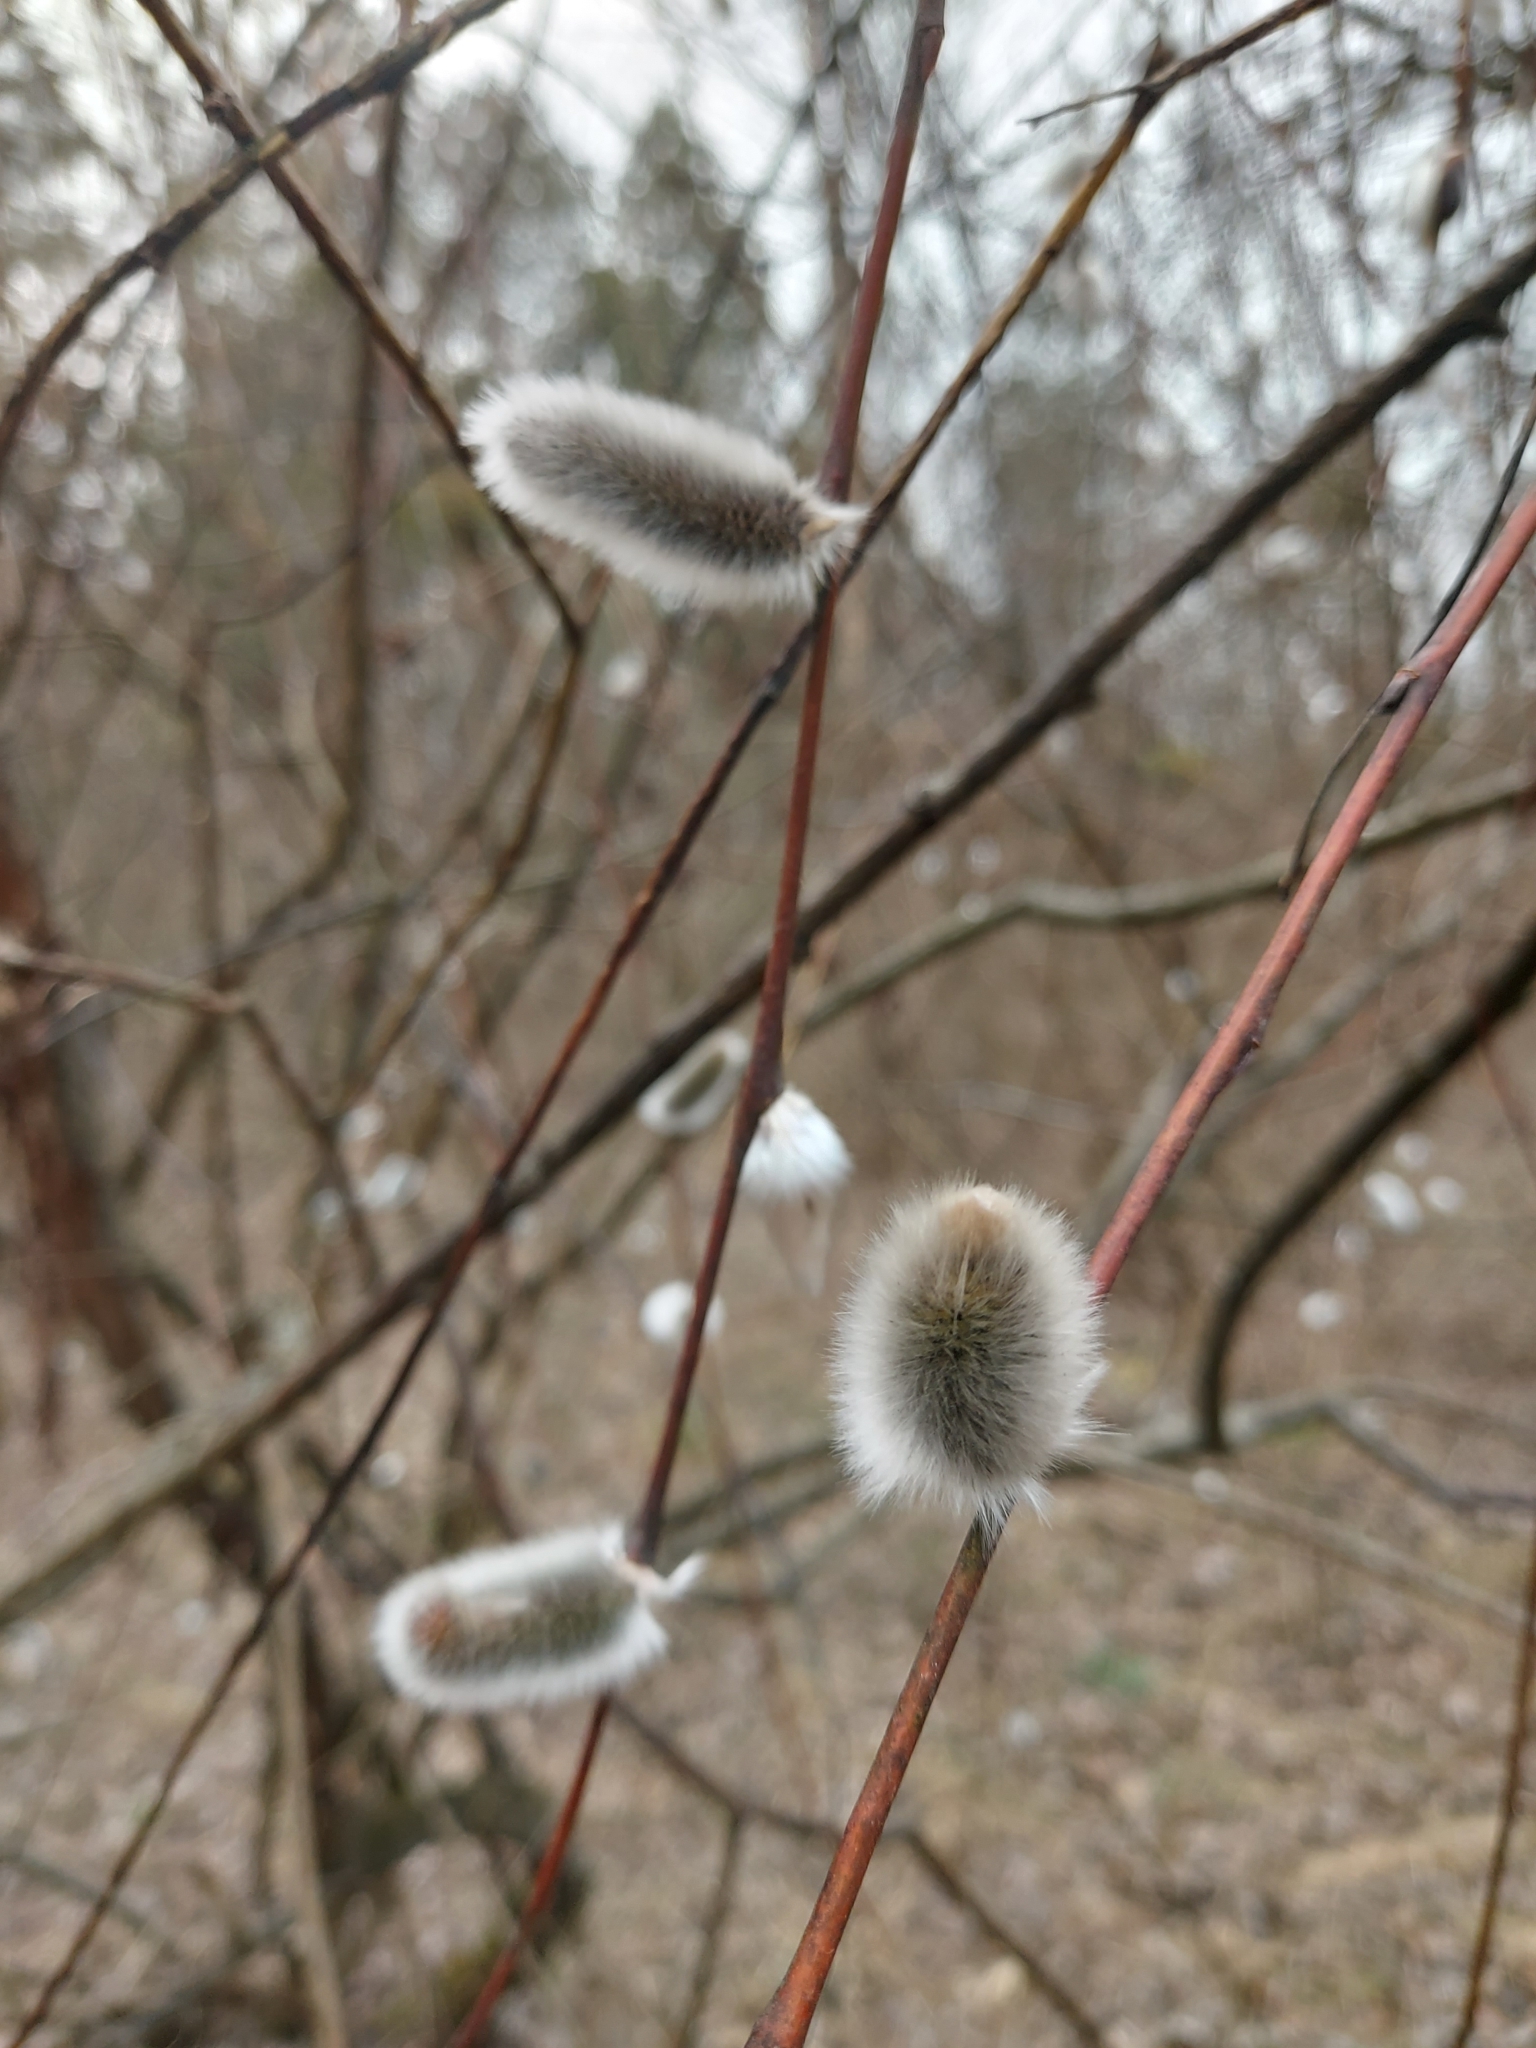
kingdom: Plantae
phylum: Tracheophyta
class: Magnoliopsida
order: Malpighiales
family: Salicaceae
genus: Salix
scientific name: Salix acutifolia
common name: Siberian violet-willow
